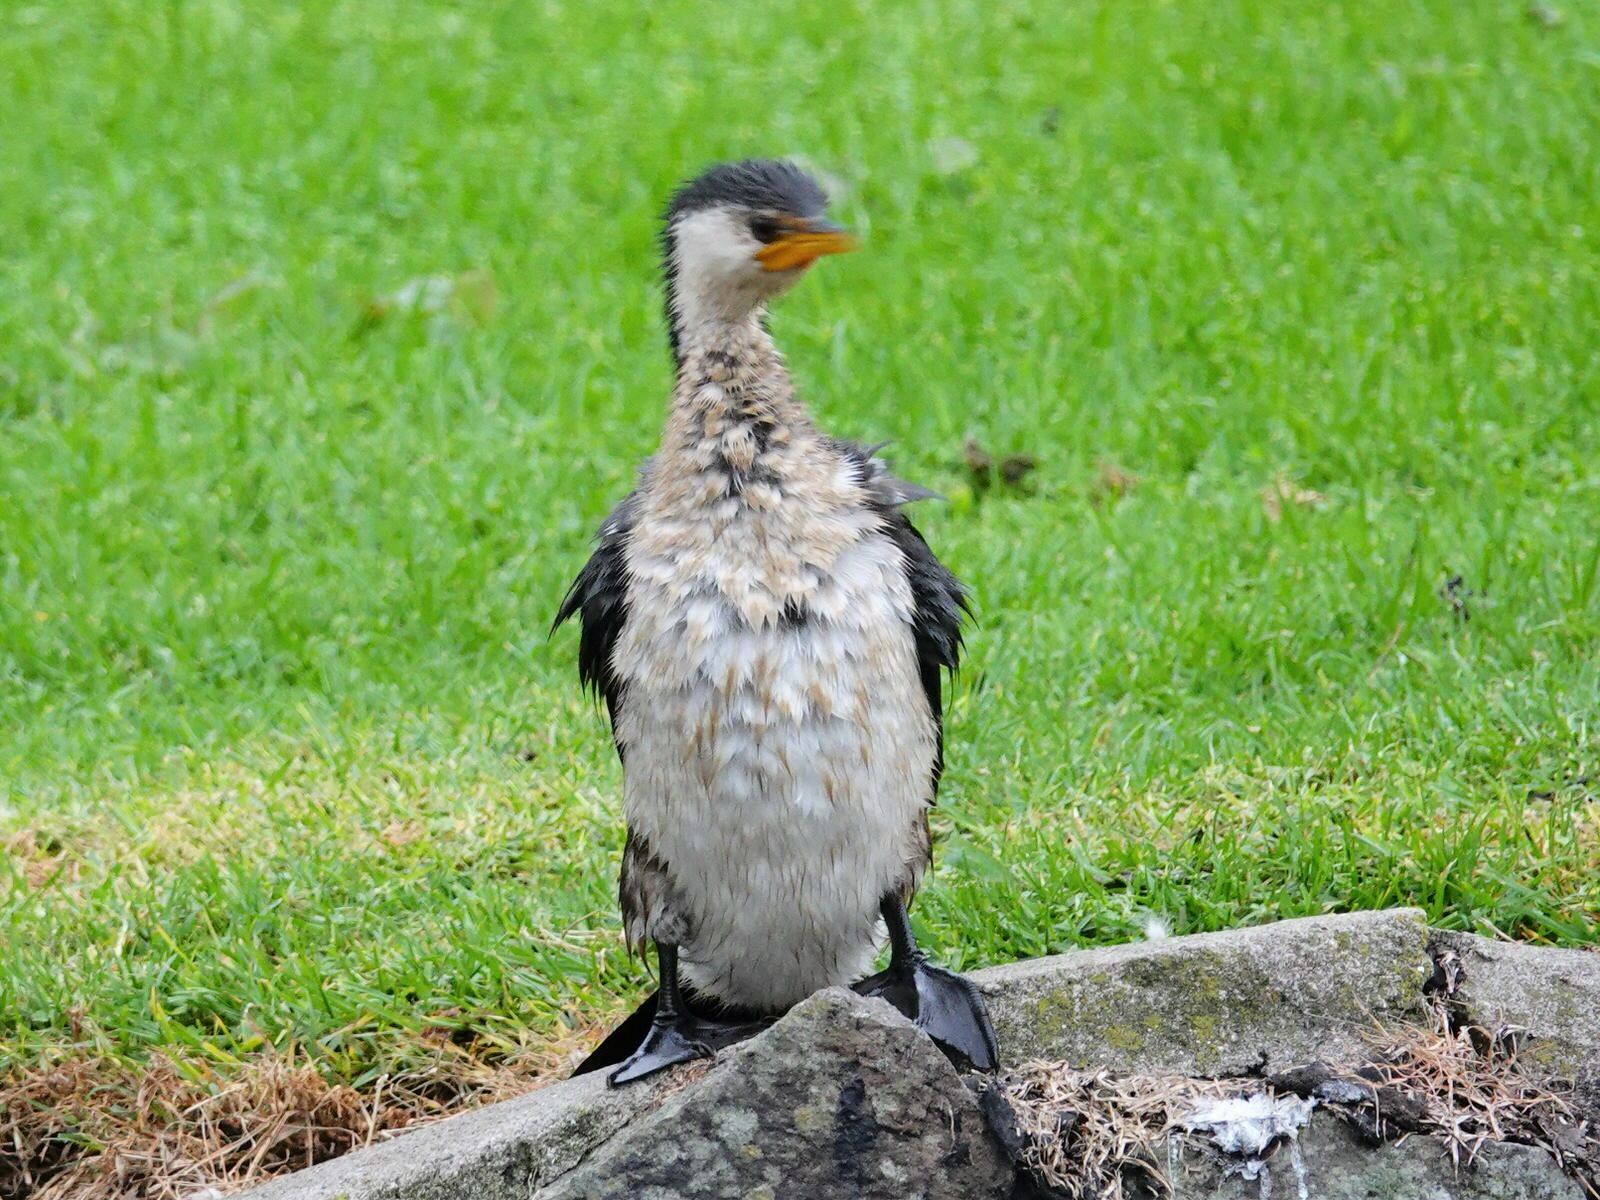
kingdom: Animalia
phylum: Chordata
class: Aves
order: Suliformes
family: Phalacrocoracidae
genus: Microcarbo
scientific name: Microcarbo melanoleucos
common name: Little pied cormorant
